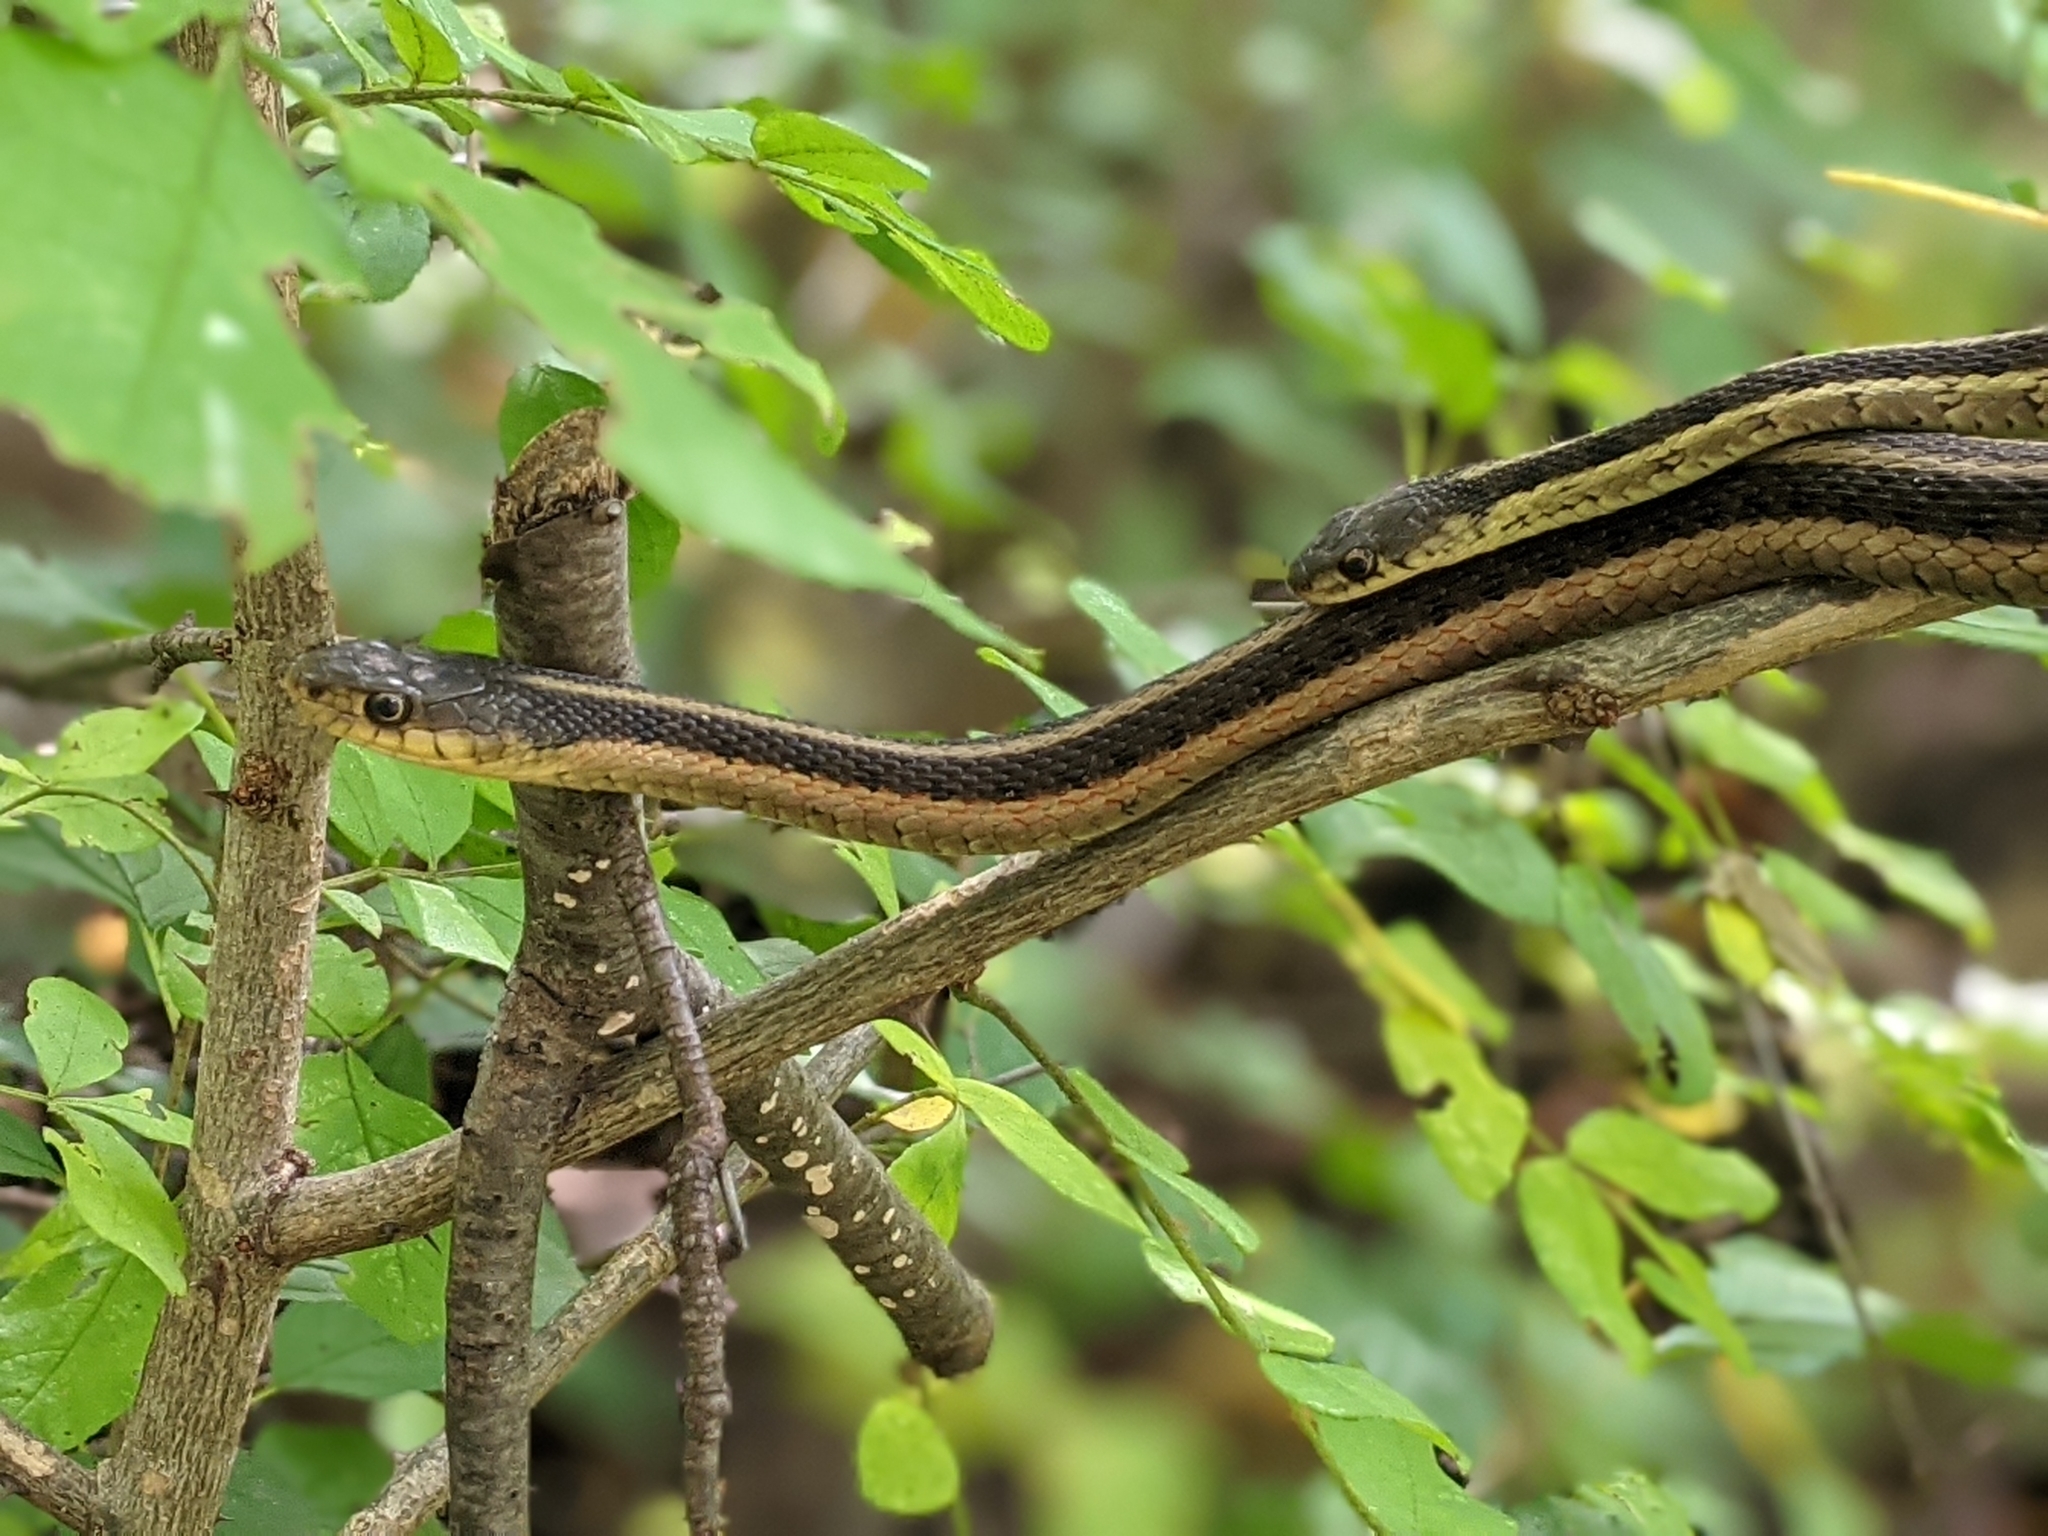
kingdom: Animalia
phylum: Chordata
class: Squamata
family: Colubridae
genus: Thamnophis
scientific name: Thamnophis sirtalis
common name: Common garter snake
